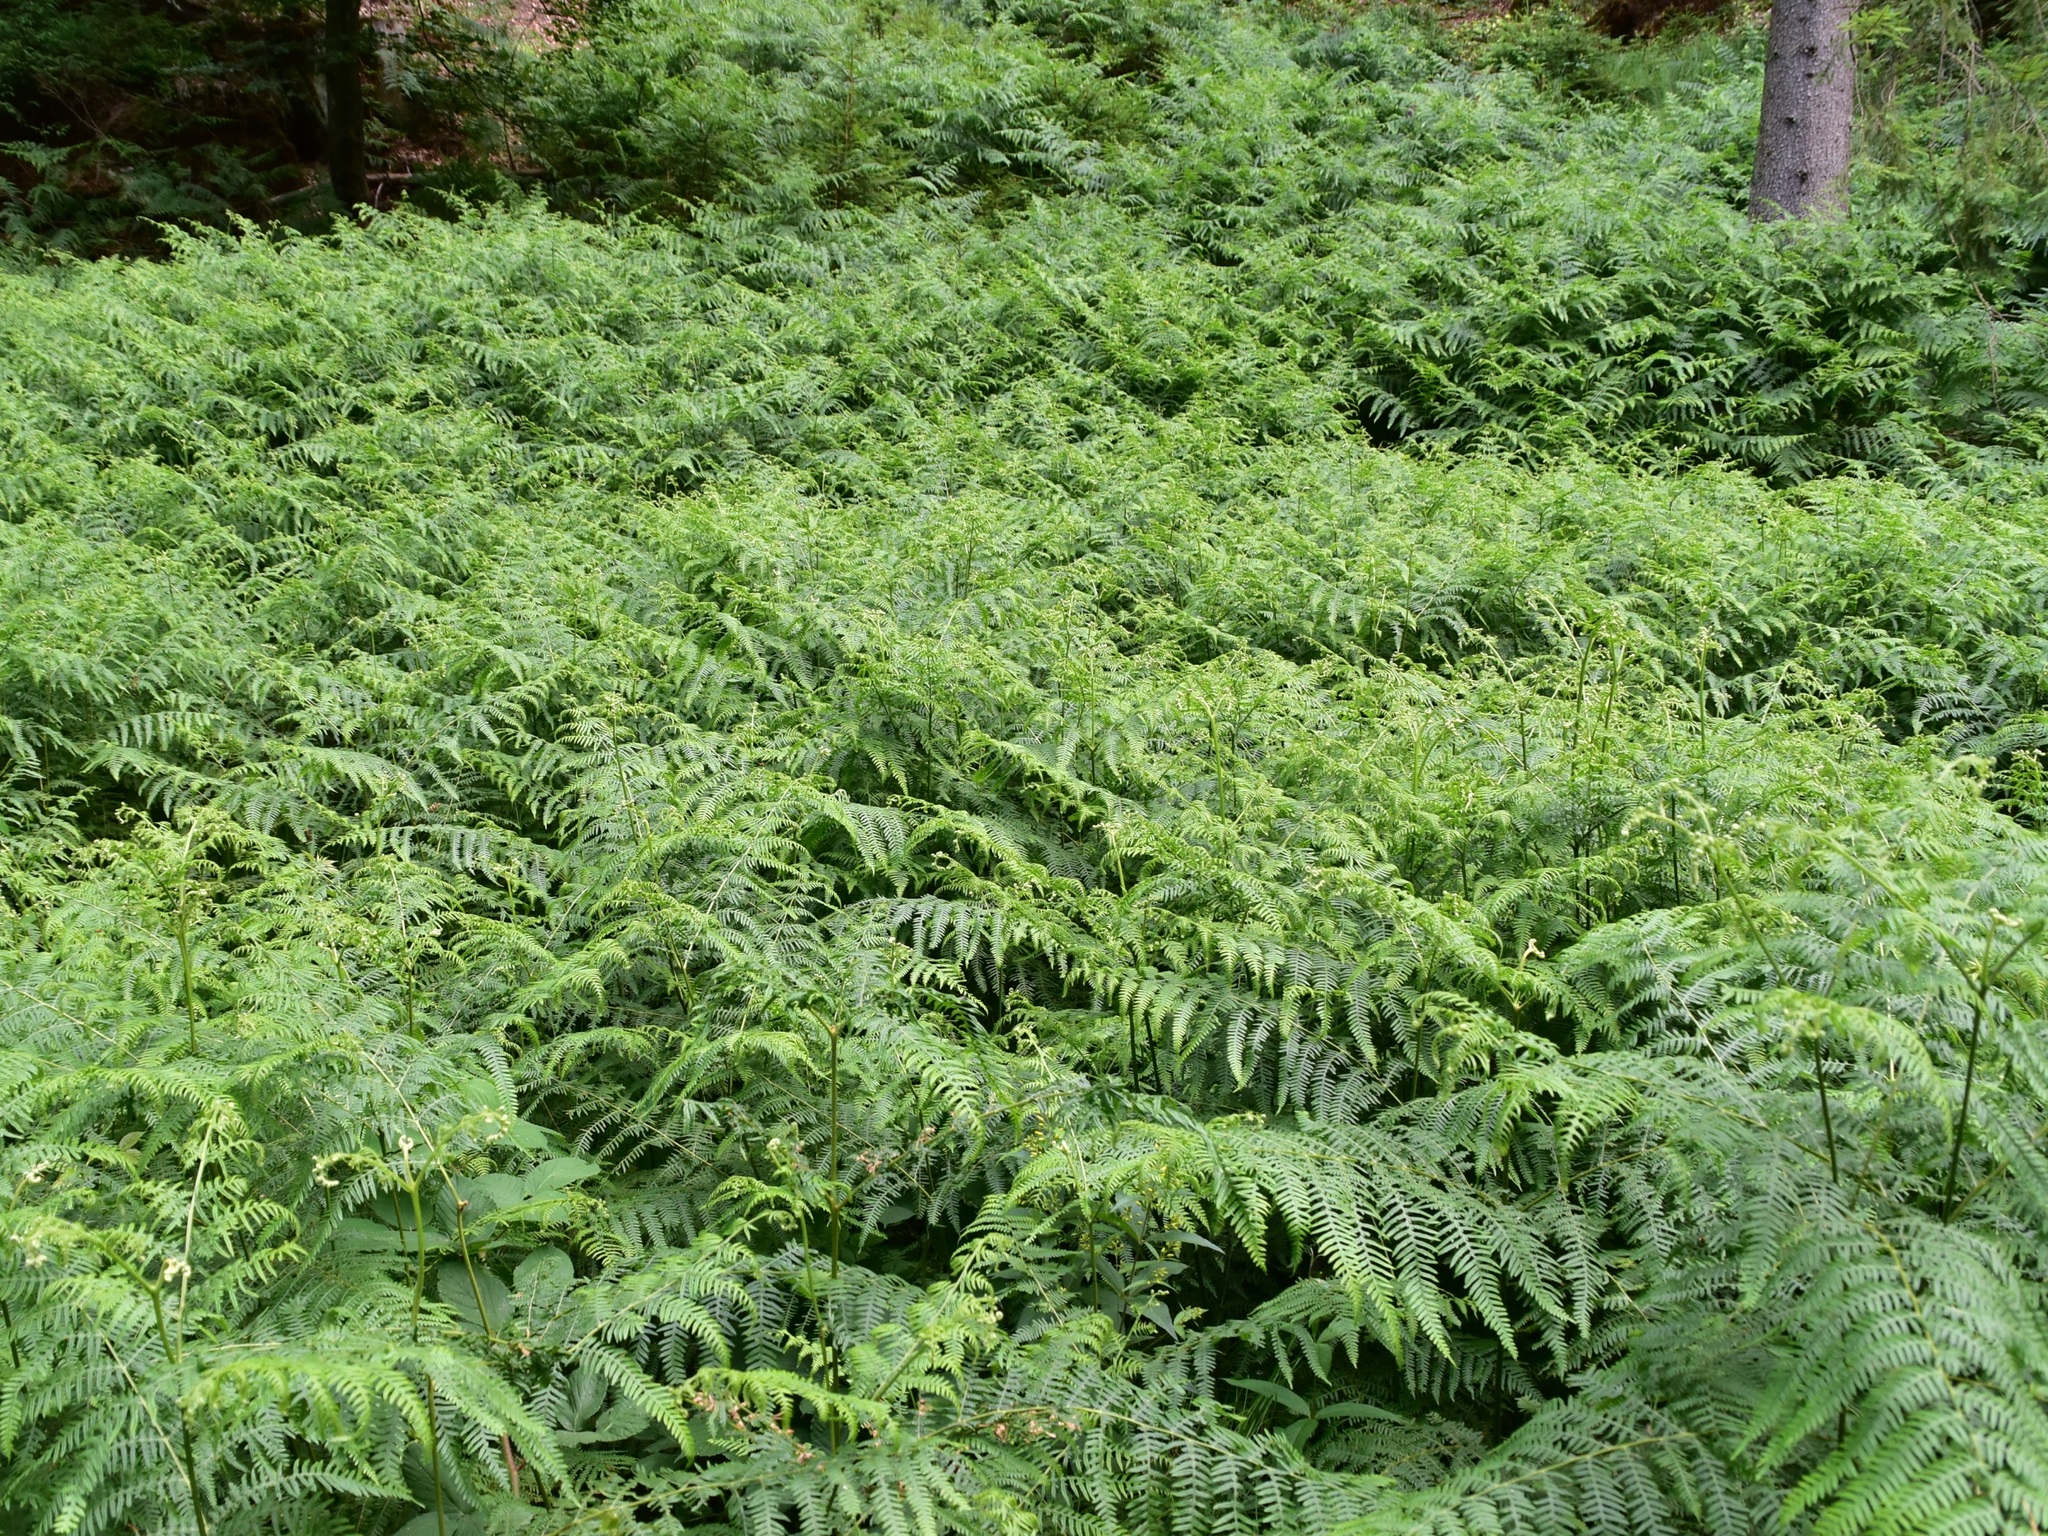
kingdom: Plantae
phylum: Tracheophyta
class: Polypodiopsida
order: Polypodiales
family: Dennstaedtiaceae
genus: Pteridium
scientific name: Pteridium aquilinum
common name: Bracken
